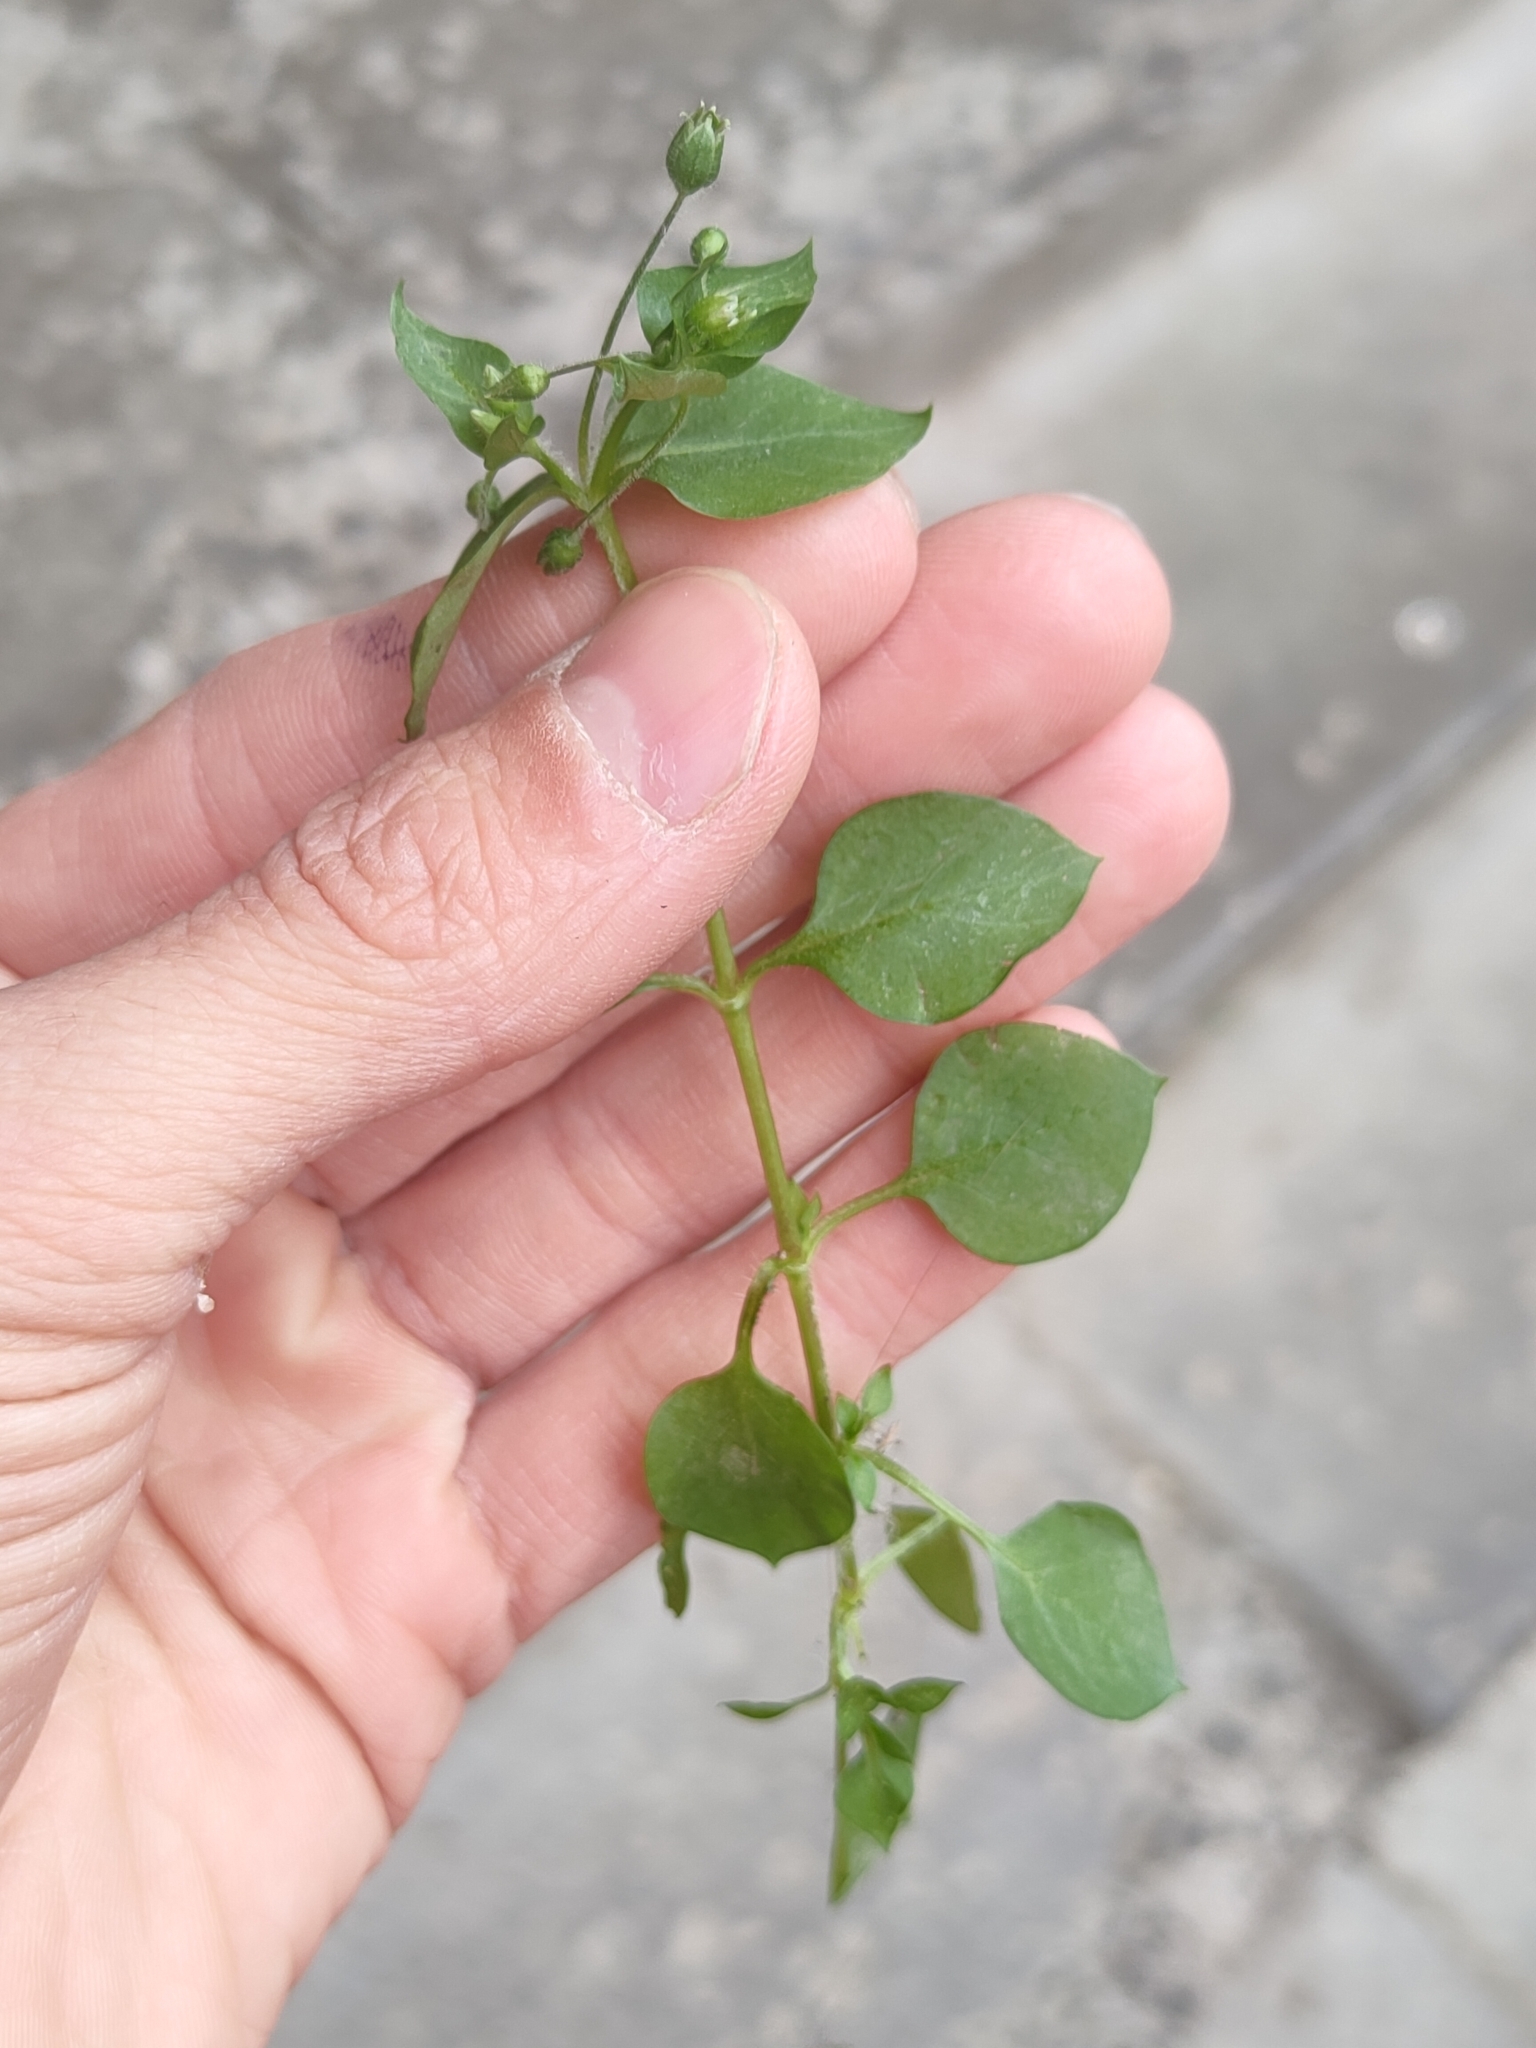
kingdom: Plantae
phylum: Tracheophyta
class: Magnoliopsida
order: Caryophyllales
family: Caryophyllaceae
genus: Stellaria
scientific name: Stellaria media
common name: Common chickweed
